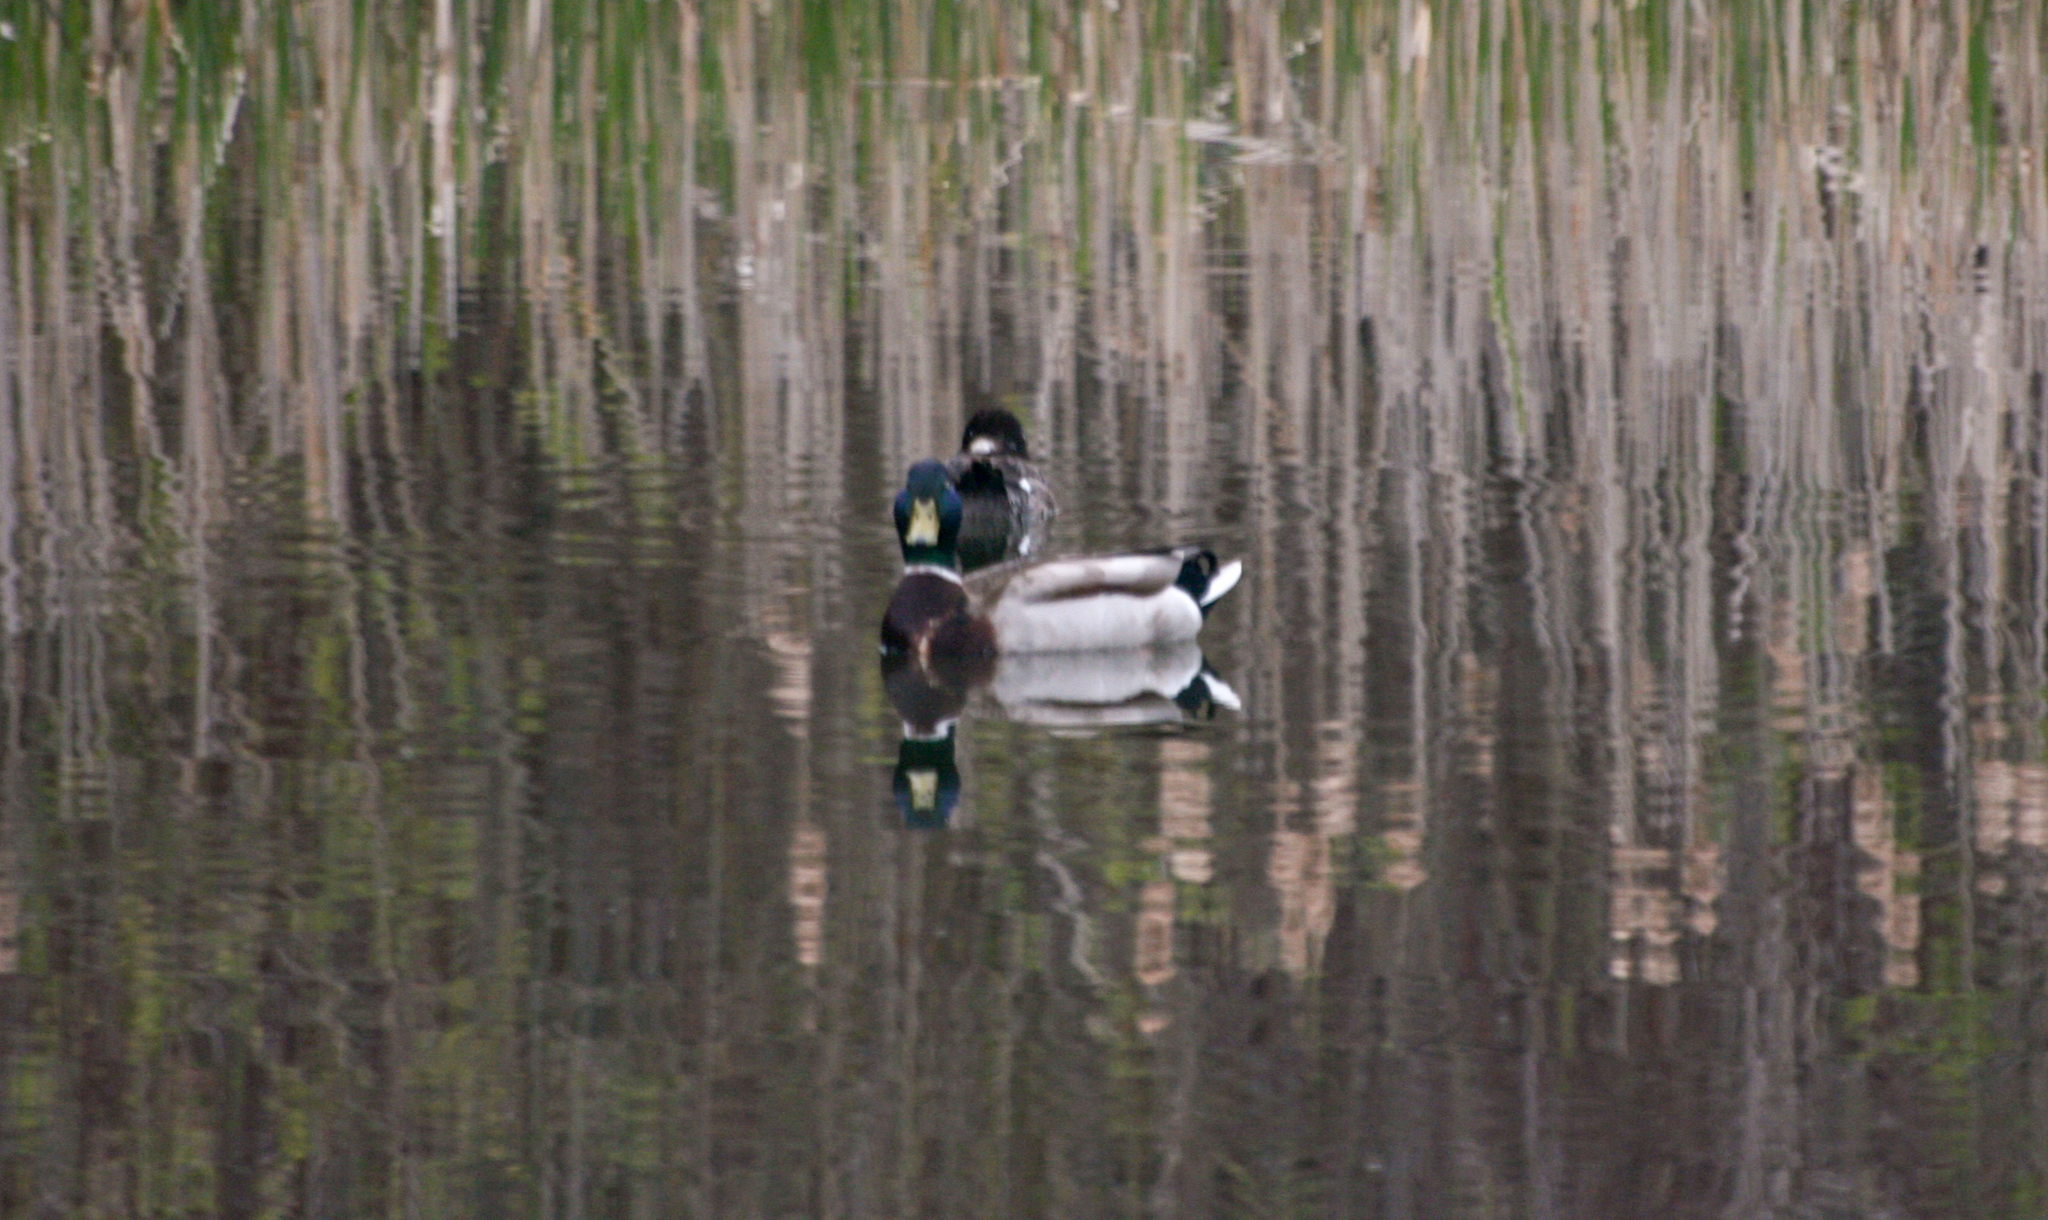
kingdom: Animalia
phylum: Chordata
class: Aves
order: Anseriformes
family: Anatidae
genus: Anas
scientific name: Anas platyrhynchos
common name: Mallard
